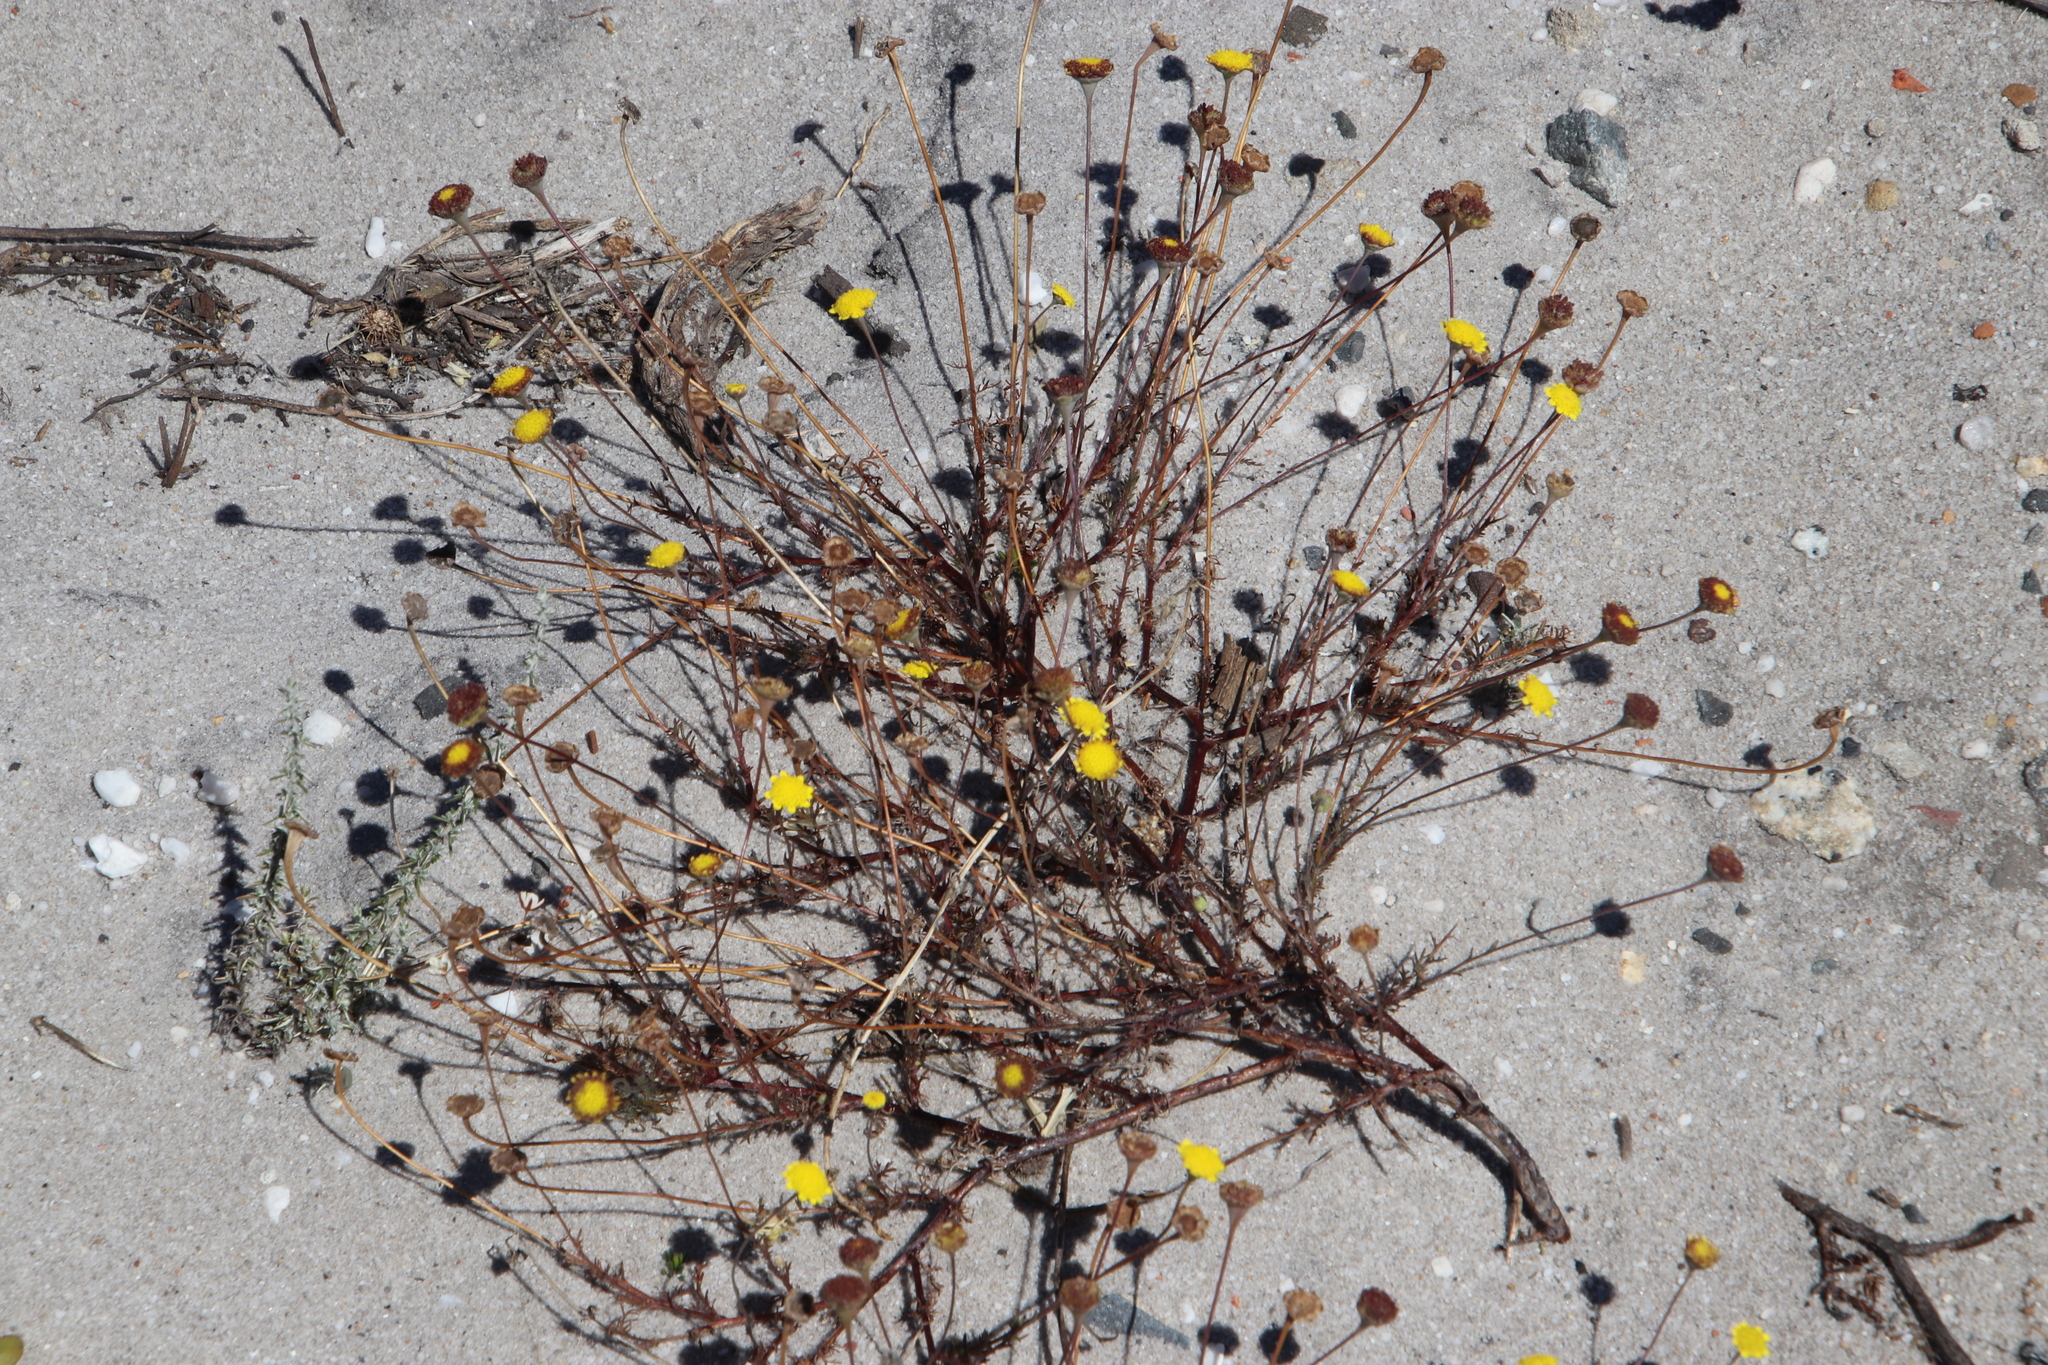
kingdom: Plantae
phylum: Tracheophyta
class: Magnoliopsida
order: Asterales
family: Asteraceae
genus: Cotula
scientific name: Cotula pruinosa
